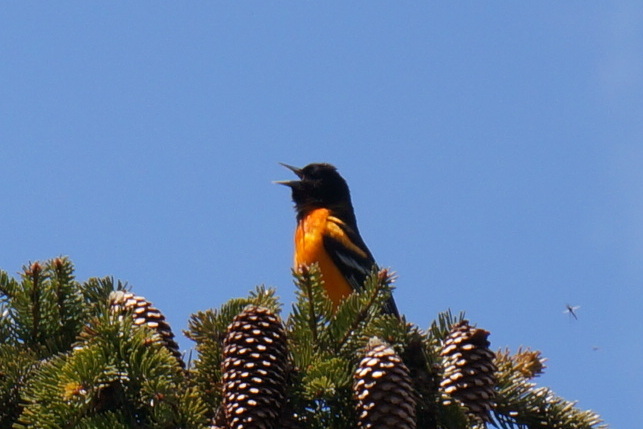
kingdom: Animalia
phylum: Chordata
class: Aves
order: Passeriformes
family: Icteridae
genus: Icterus
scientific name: Icterus galbula
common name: Baltimore oriole
